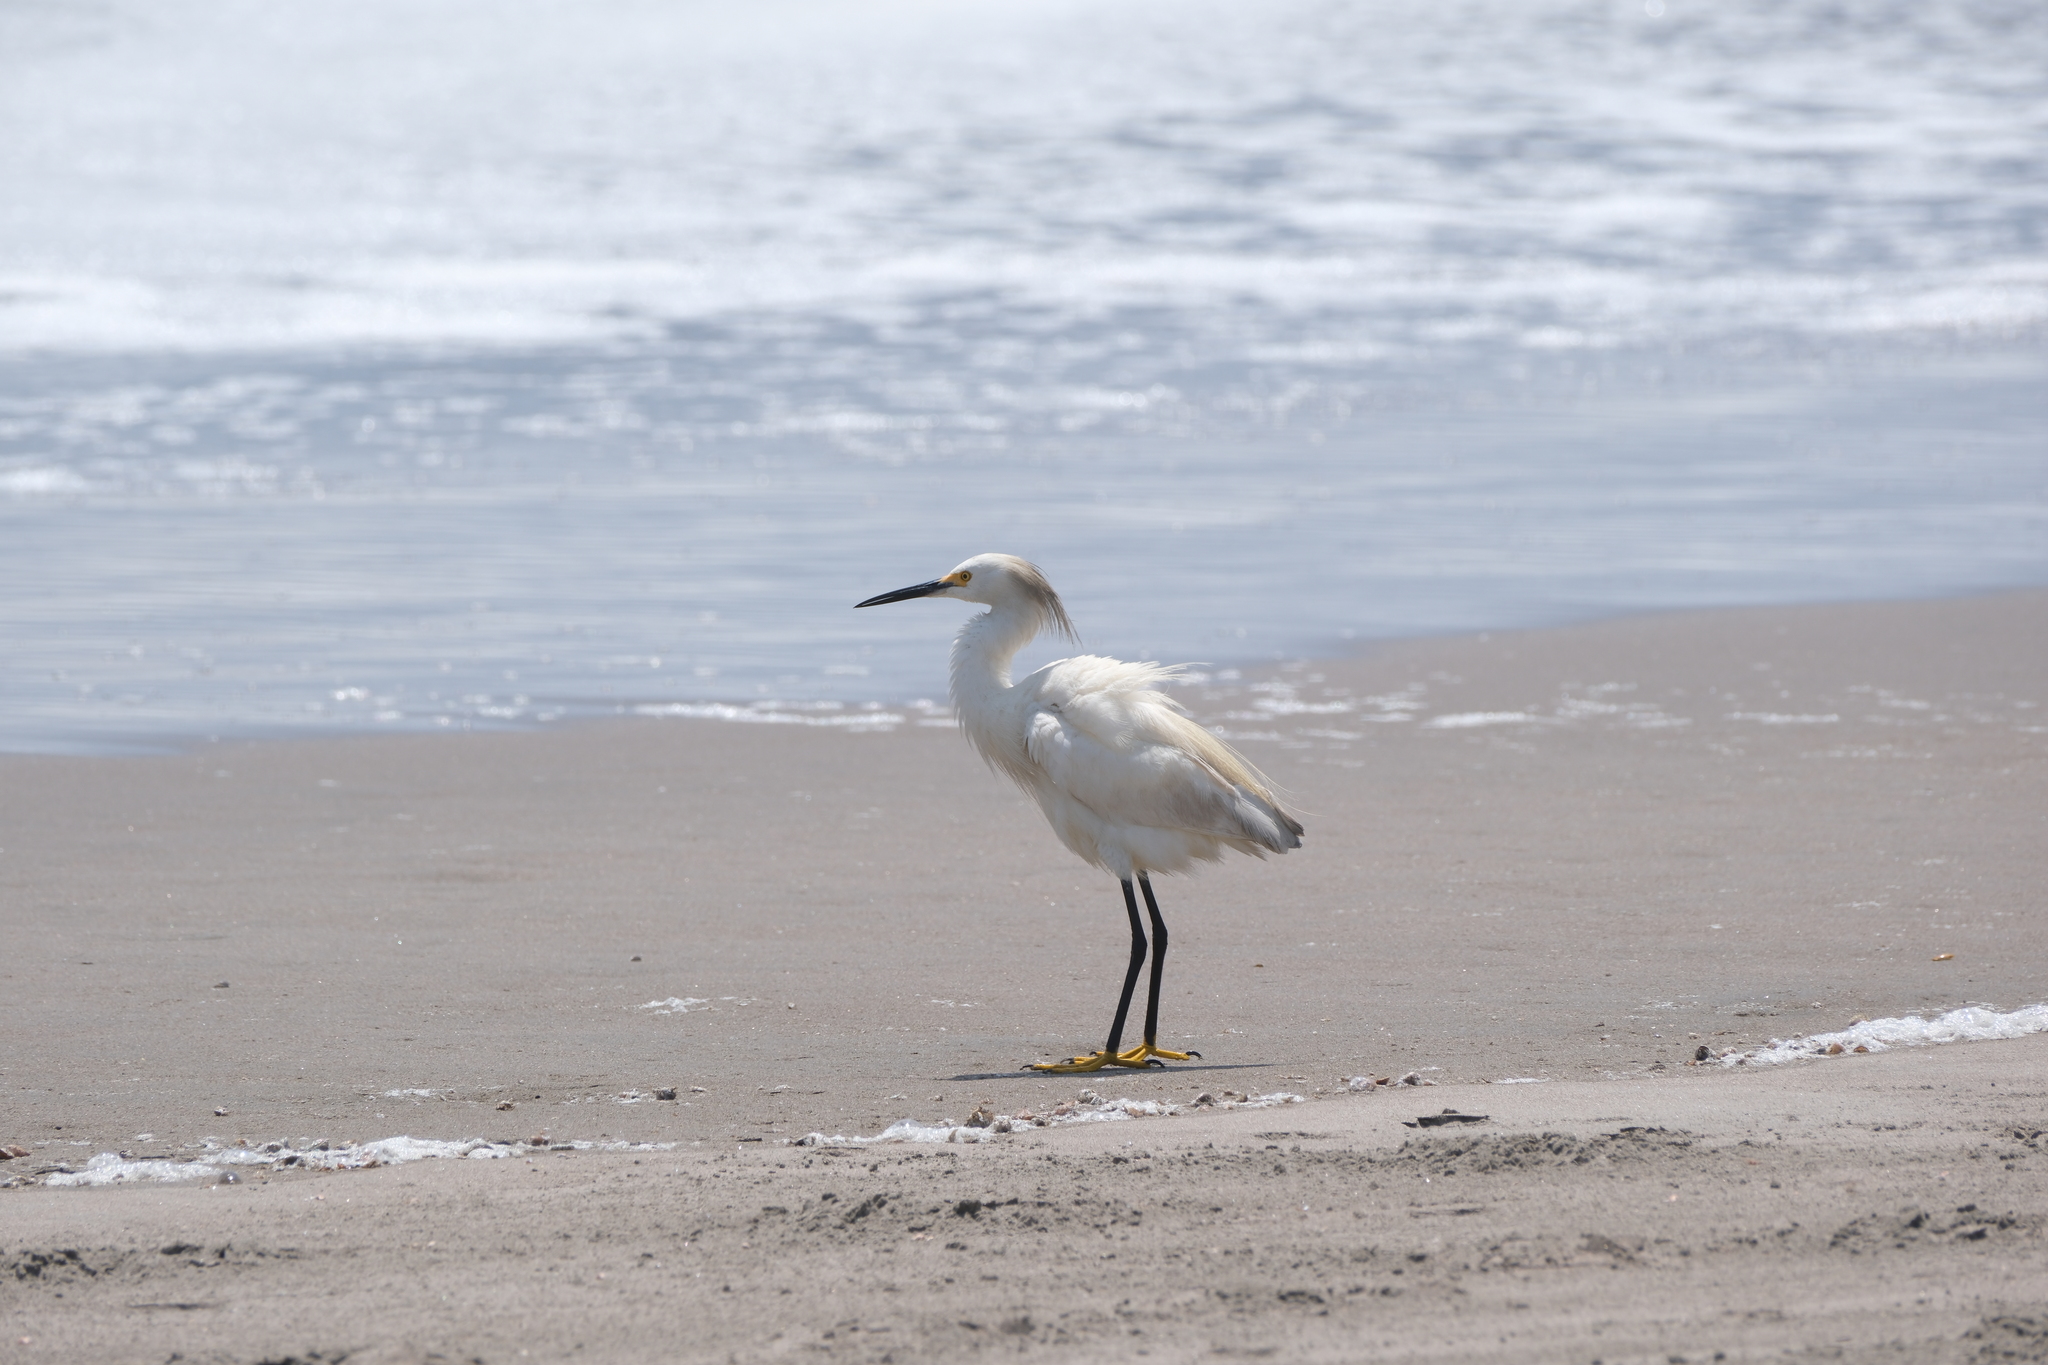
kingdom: Animalia
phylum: Chordata
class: Aves
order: Pelecaniformes
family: Ardeidae
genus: Egretta
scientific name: Egretta thula
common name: Snowy egret
